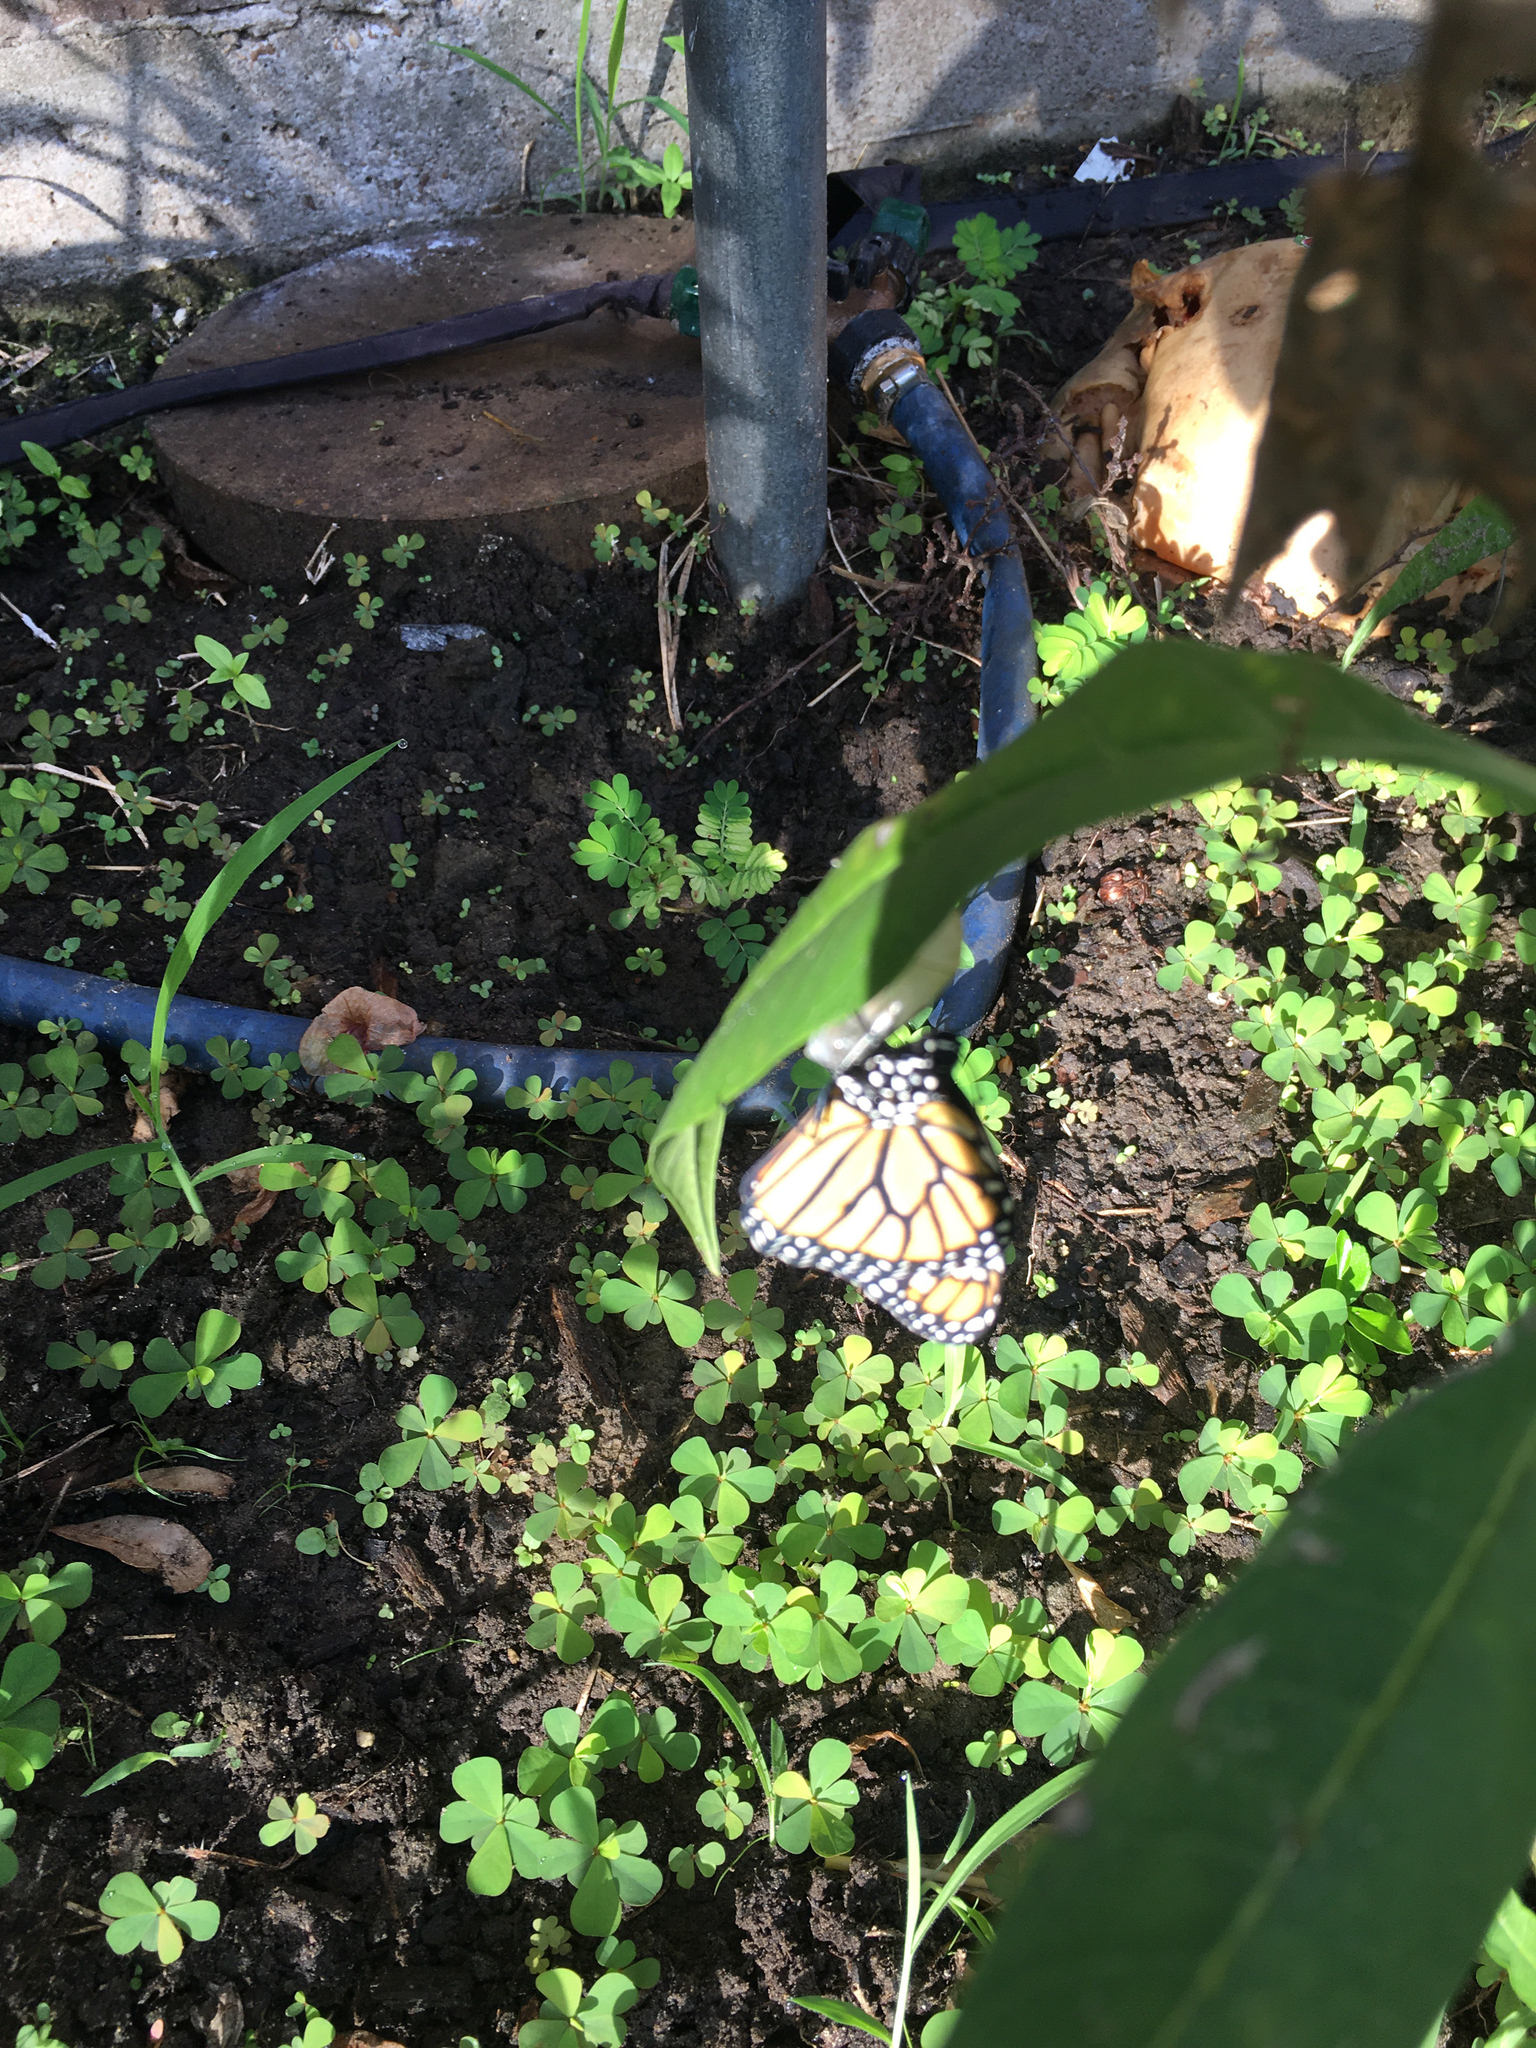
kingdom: Animalia
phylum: Arthropoda
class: Insecta
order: Lepidoptera
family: Nymphalidae
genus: Danaus
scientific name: Danaus plexippus
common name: Monarch
